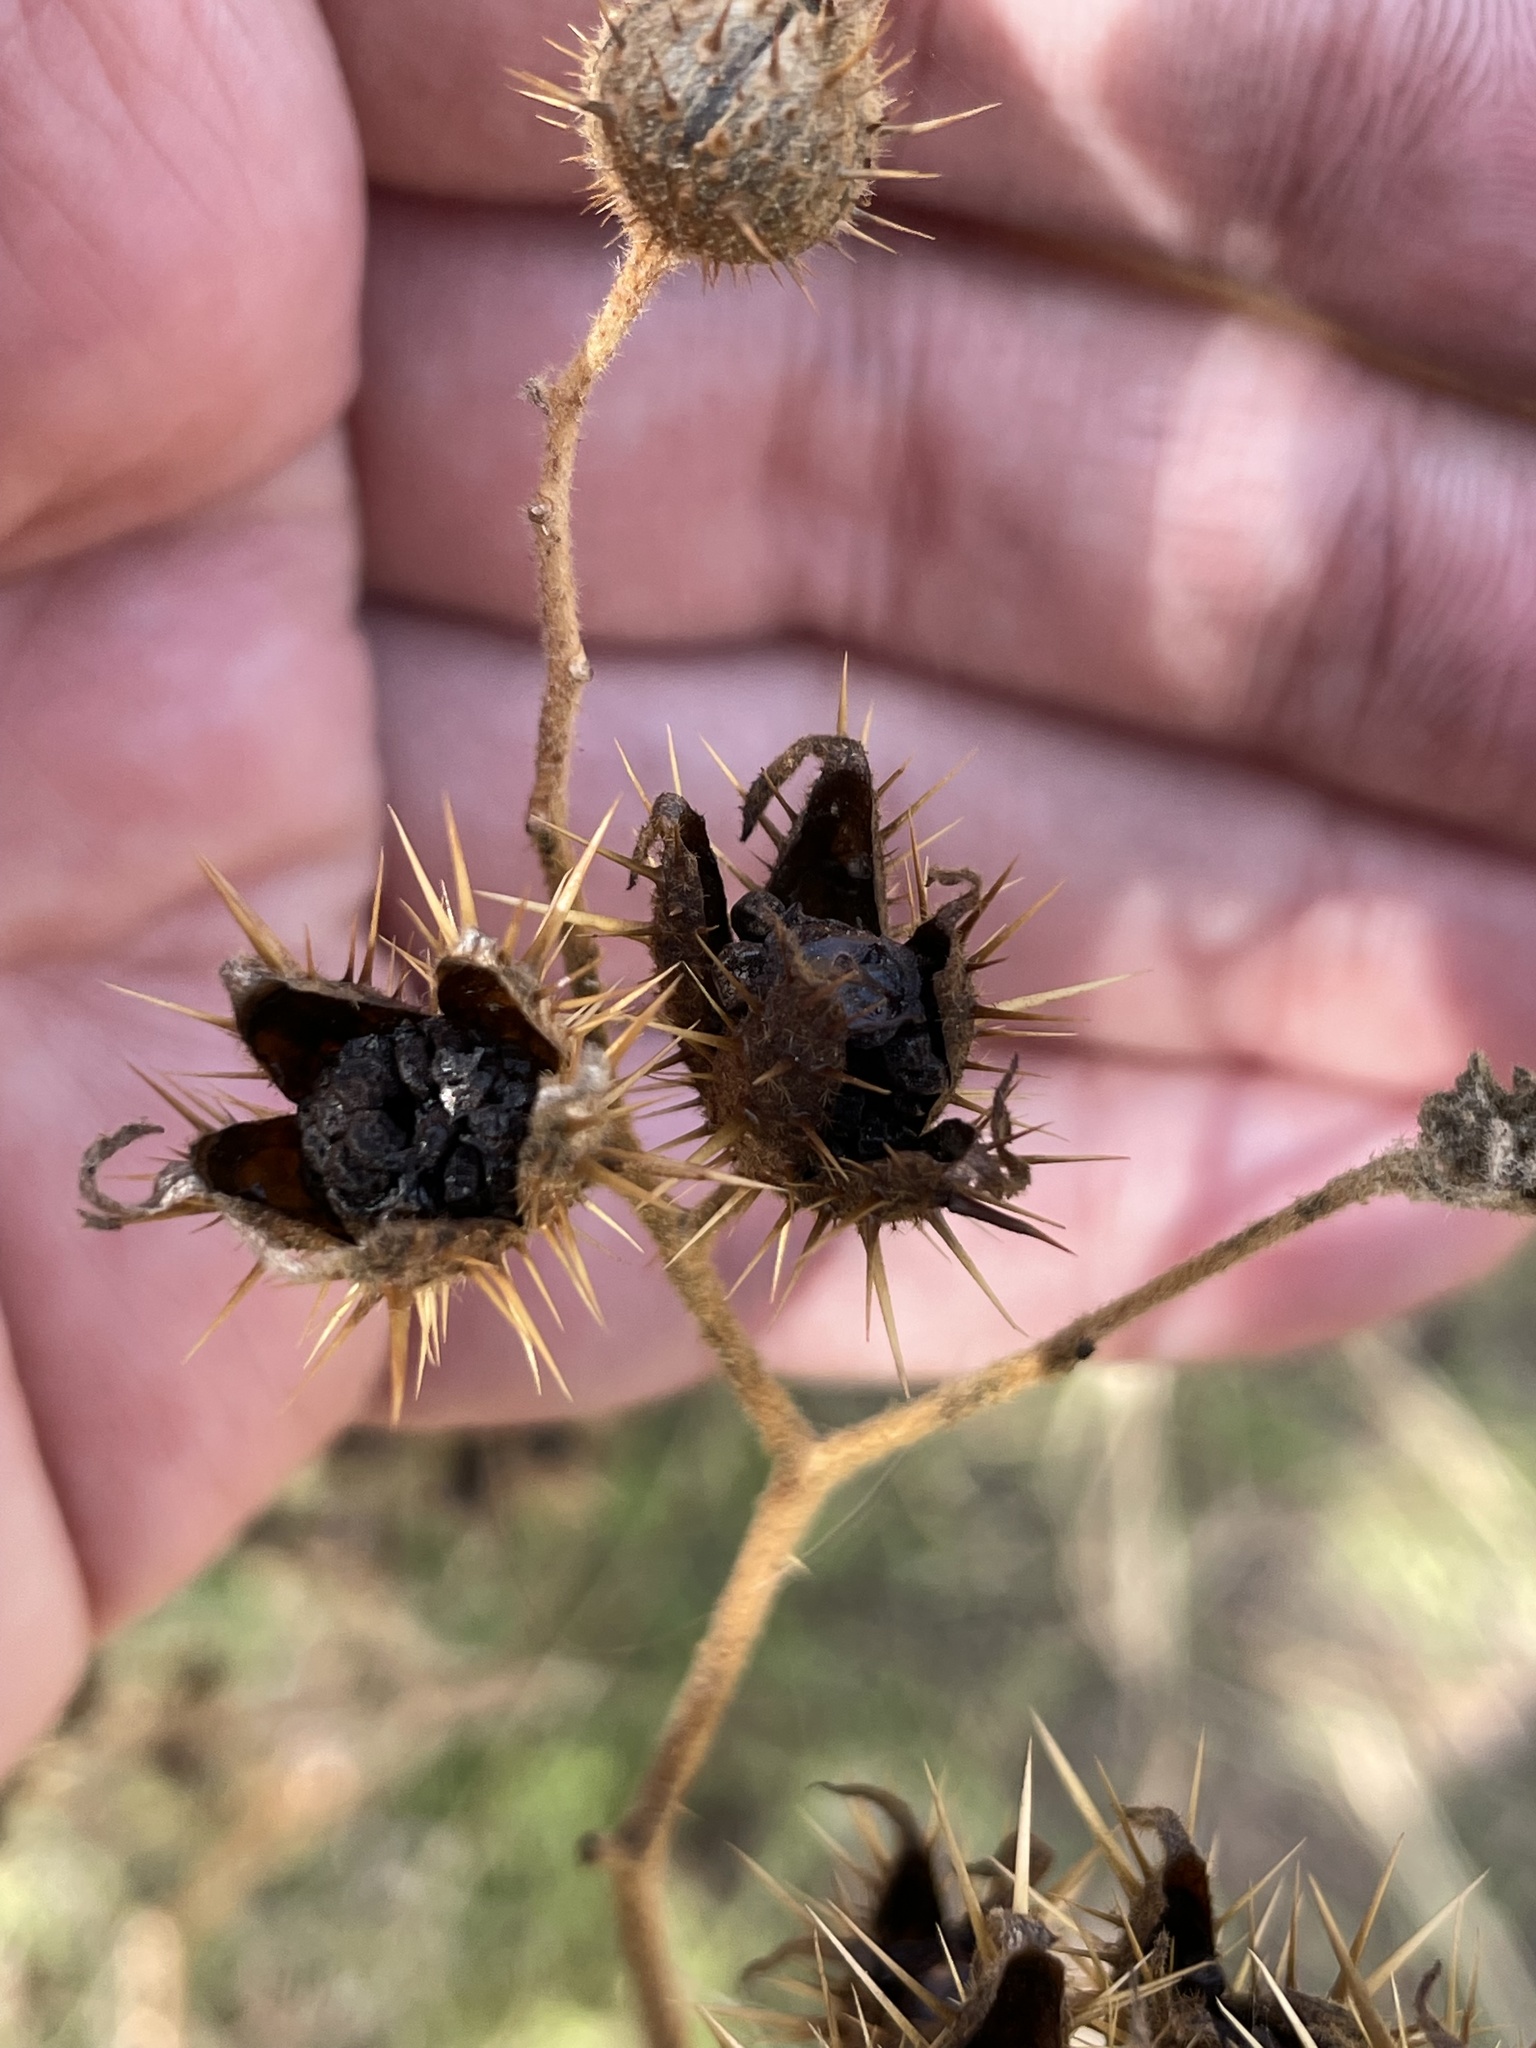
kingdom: Plantae
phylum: Tracheophyta
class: Magnoliopsida
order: Solanales
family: Solanaceae
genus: Solanum
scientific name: Solanum angustifolium
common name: Buffalobur nightshade
